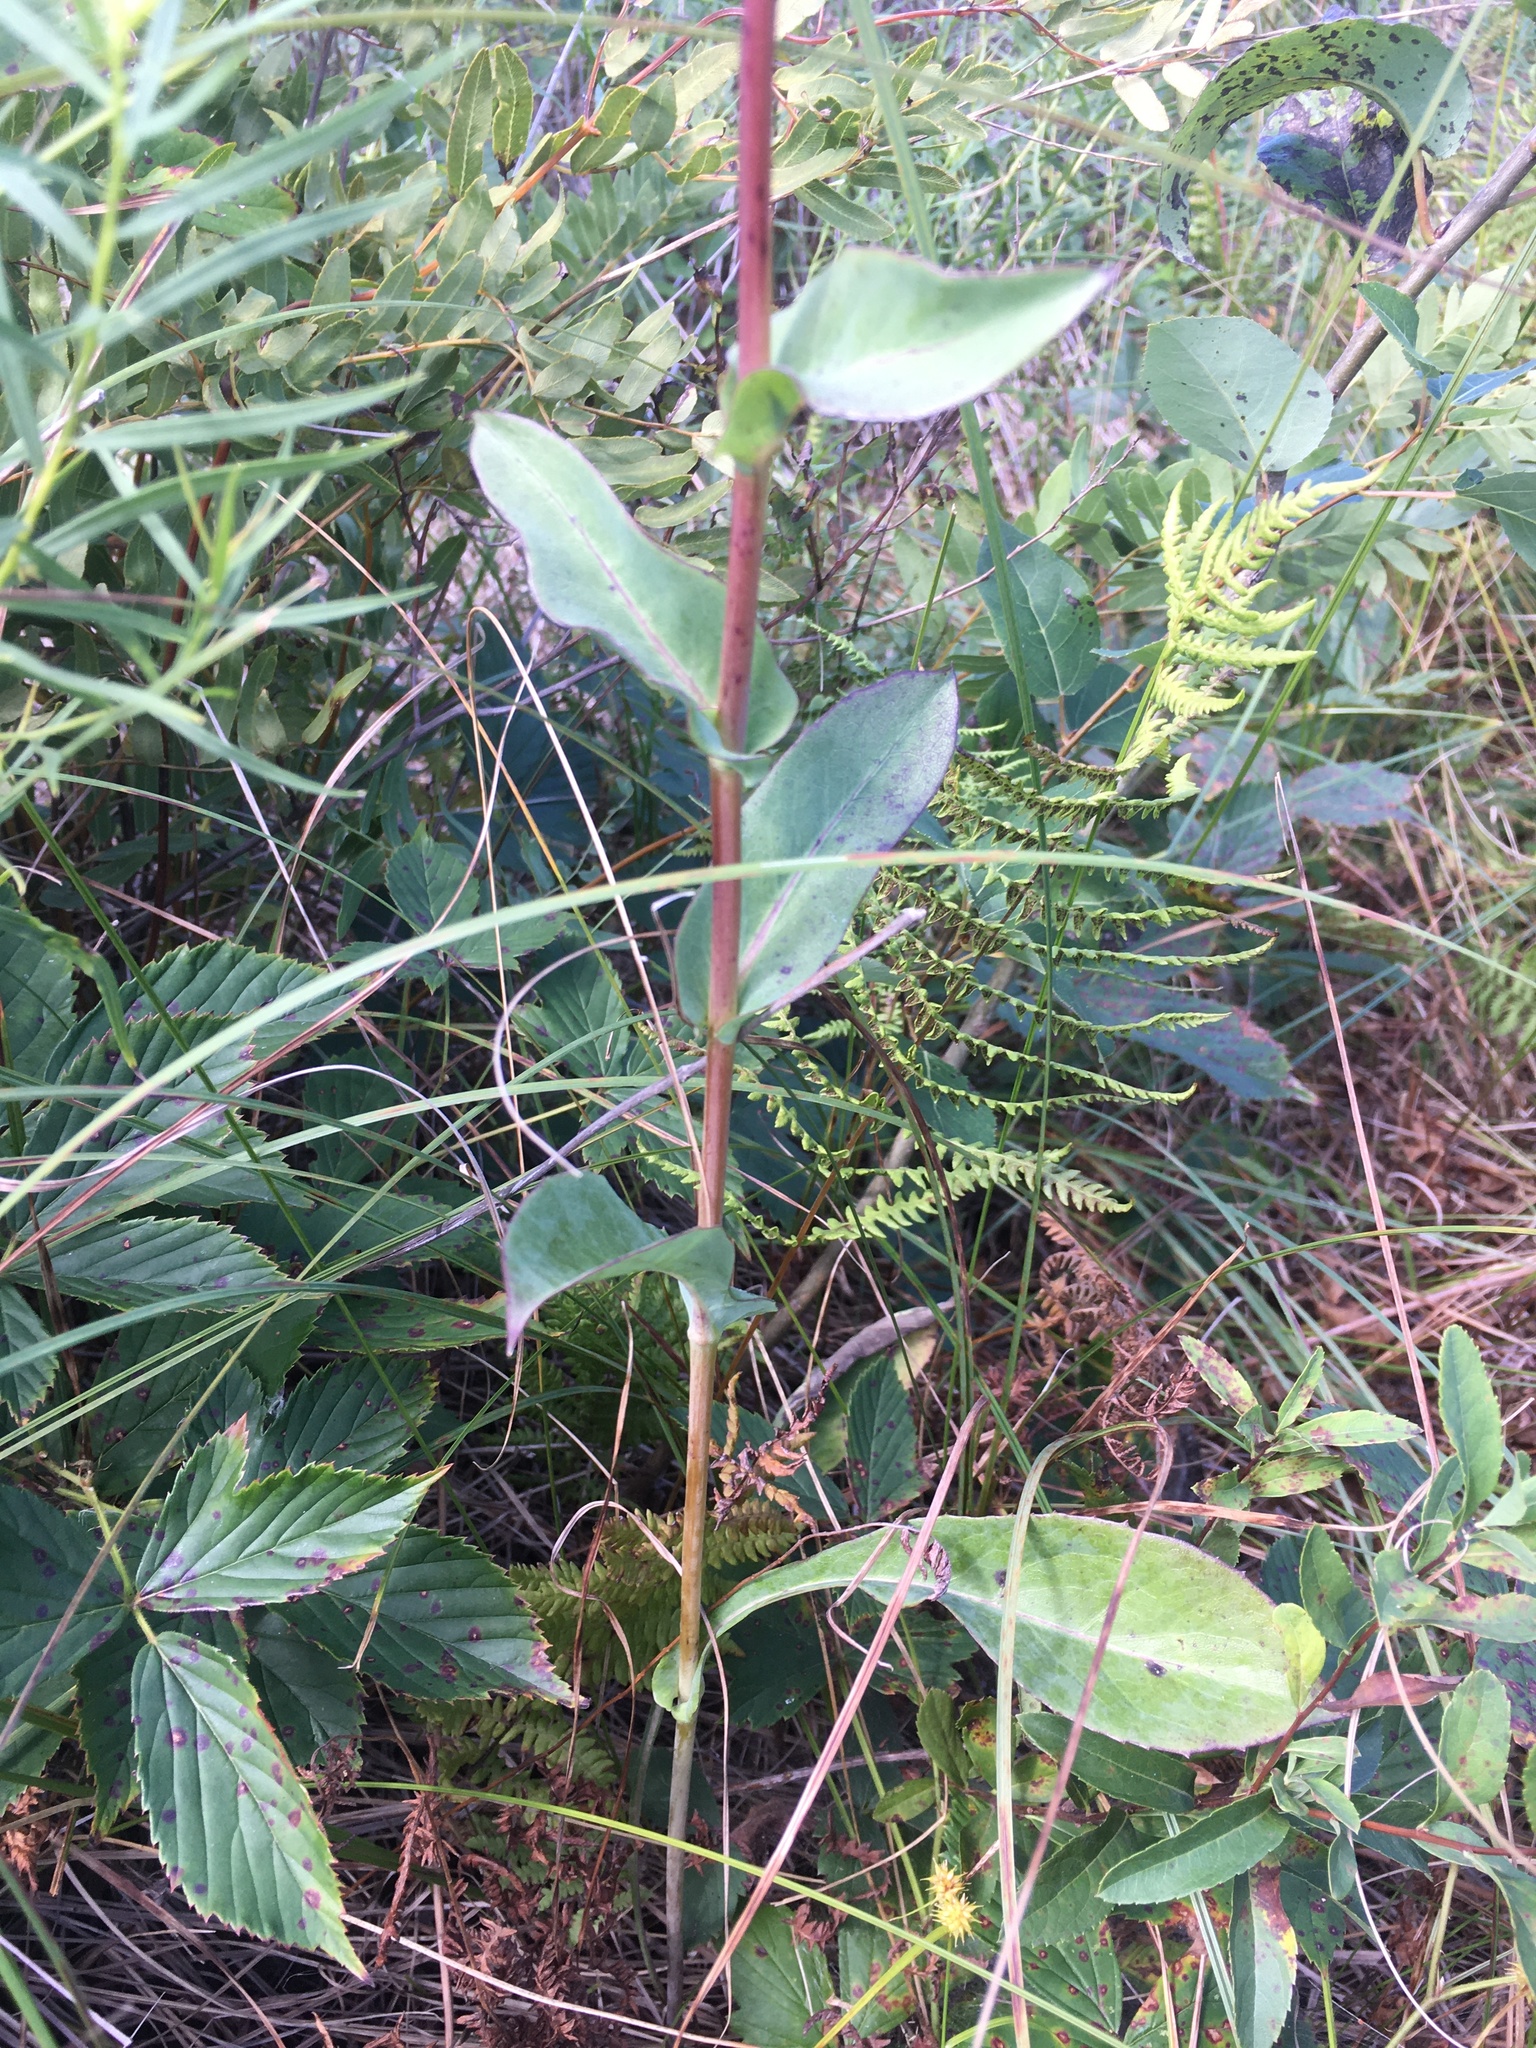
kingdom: Plantae
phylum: Tracheophyta
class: Magnoliopsida
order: Asterales
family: Asteraceae
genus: Nabalus
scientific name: Nabalus racemosus
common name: Glaucous white lettuce
